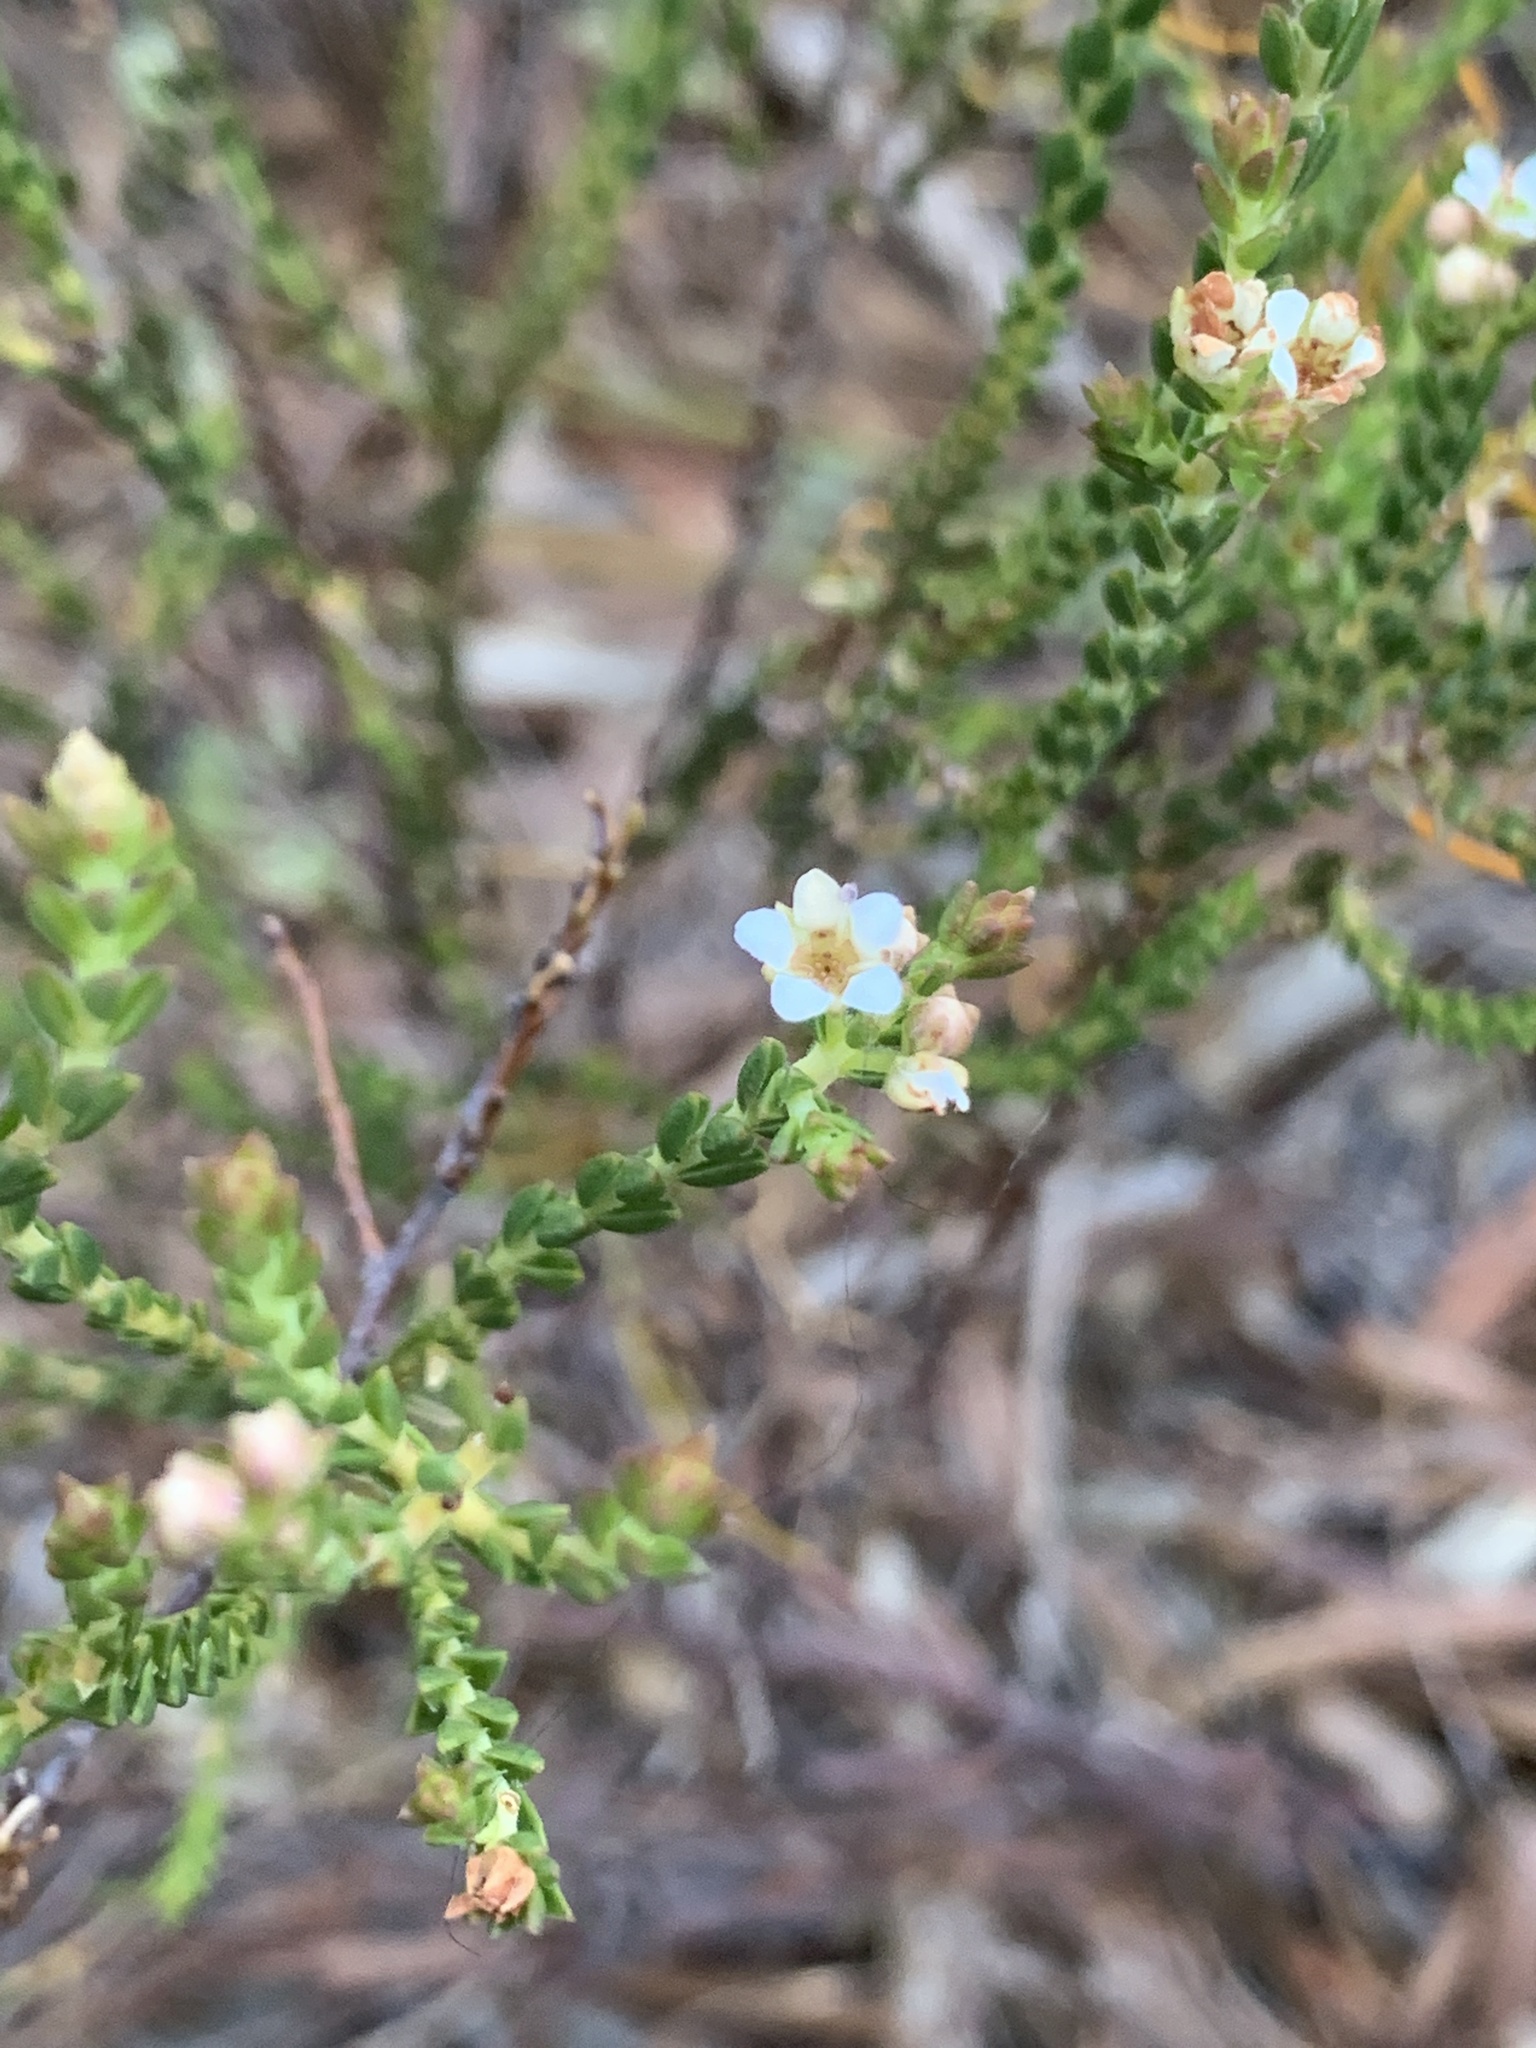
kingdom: Plantae
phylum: Tracheophyta
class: Magnoliopsida
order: Sapindales
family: Rutaceae
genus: Diosma
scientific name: Diosma oppositifolia
